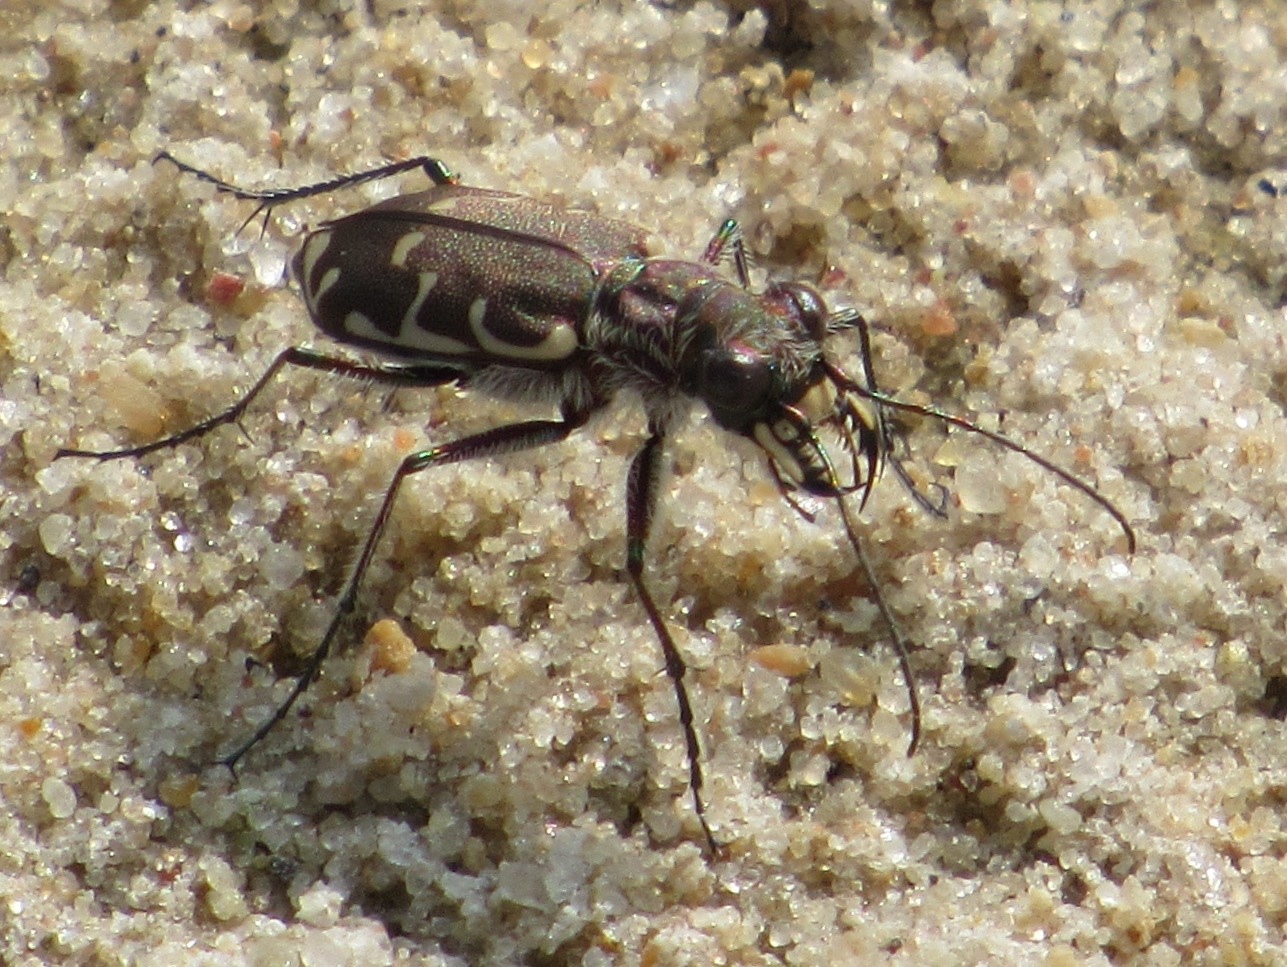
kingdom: Animalia
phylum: Arthropoda
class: Insecta
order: Coleoptera
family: Carabidae
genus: Cicindela
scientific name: Cicindela repanda
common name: Bronzed tiger beetle
